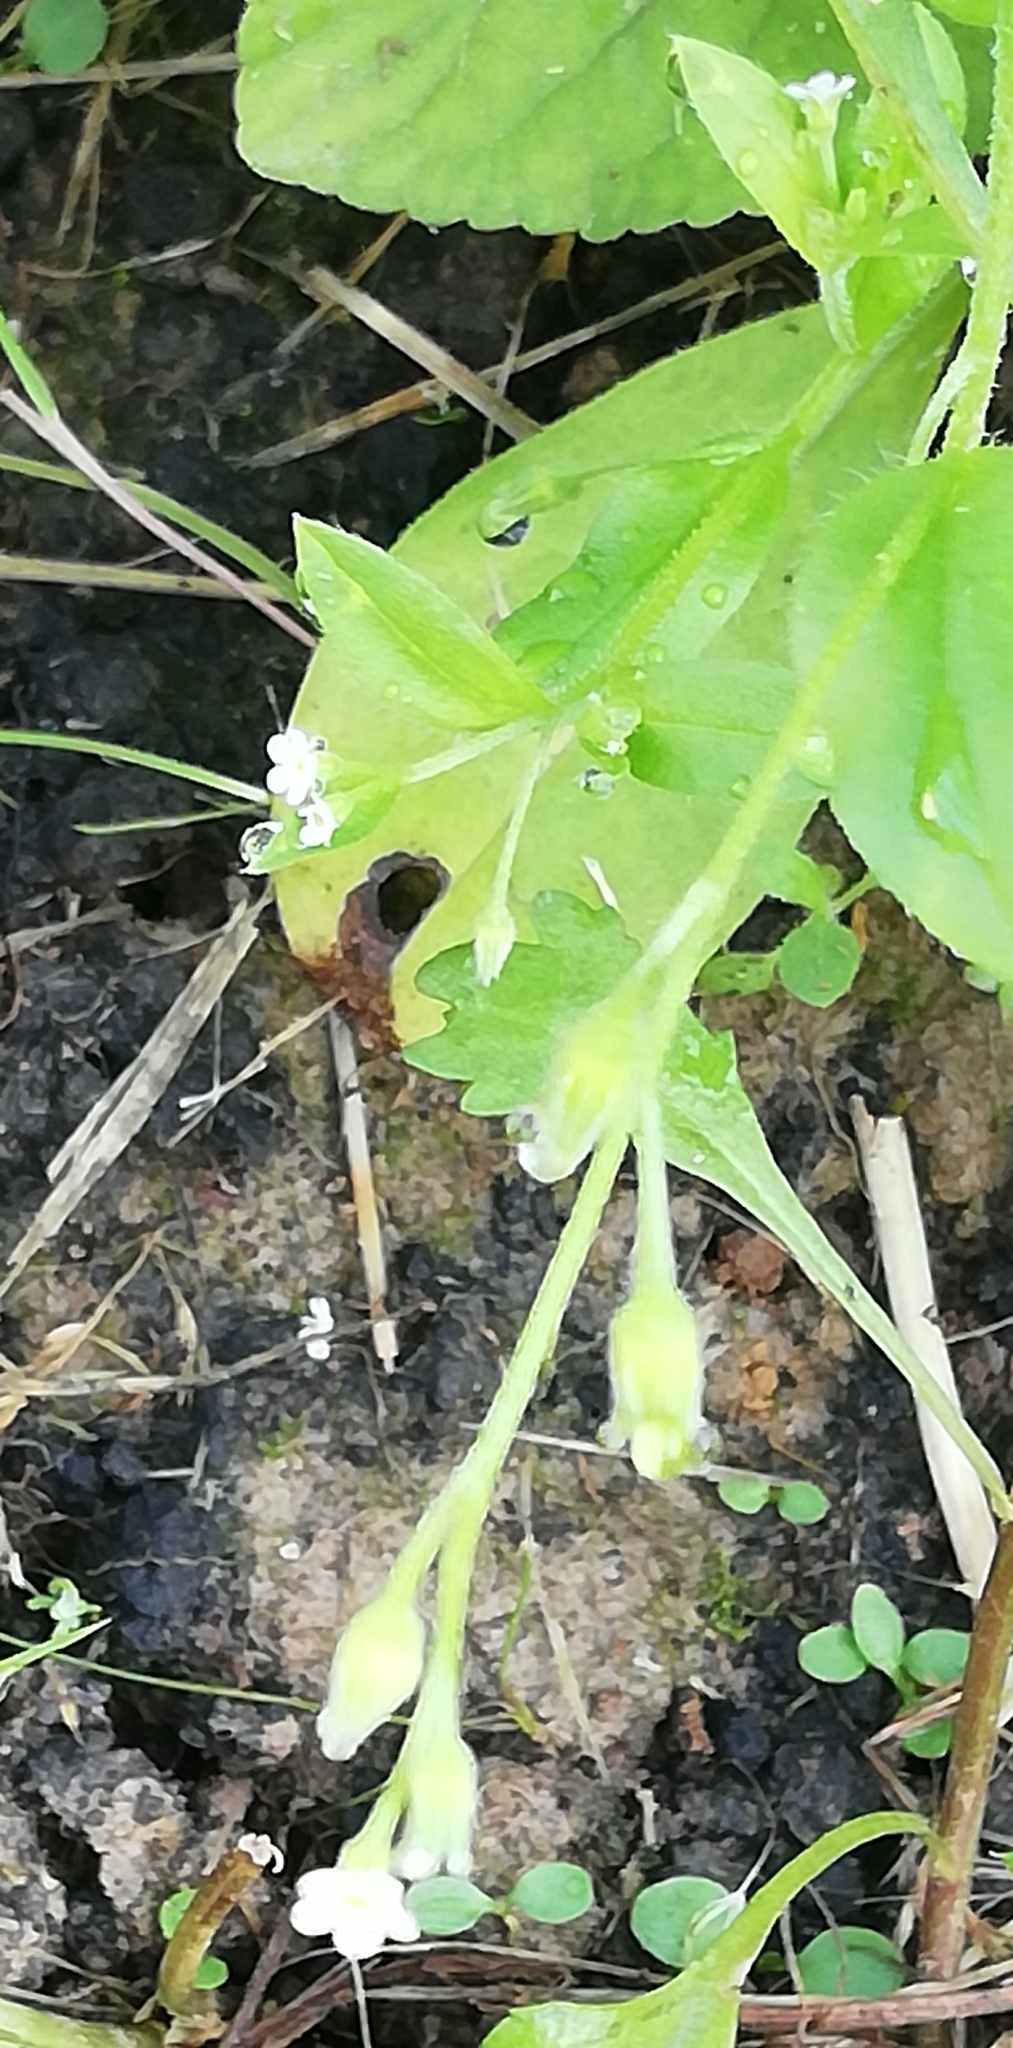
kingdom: Plantae
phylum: Tracheophyta
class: Magnoliopsida
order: Boraginales
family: Boraginaceae
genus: Myosotis
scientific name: Myosotis sparsiflora
